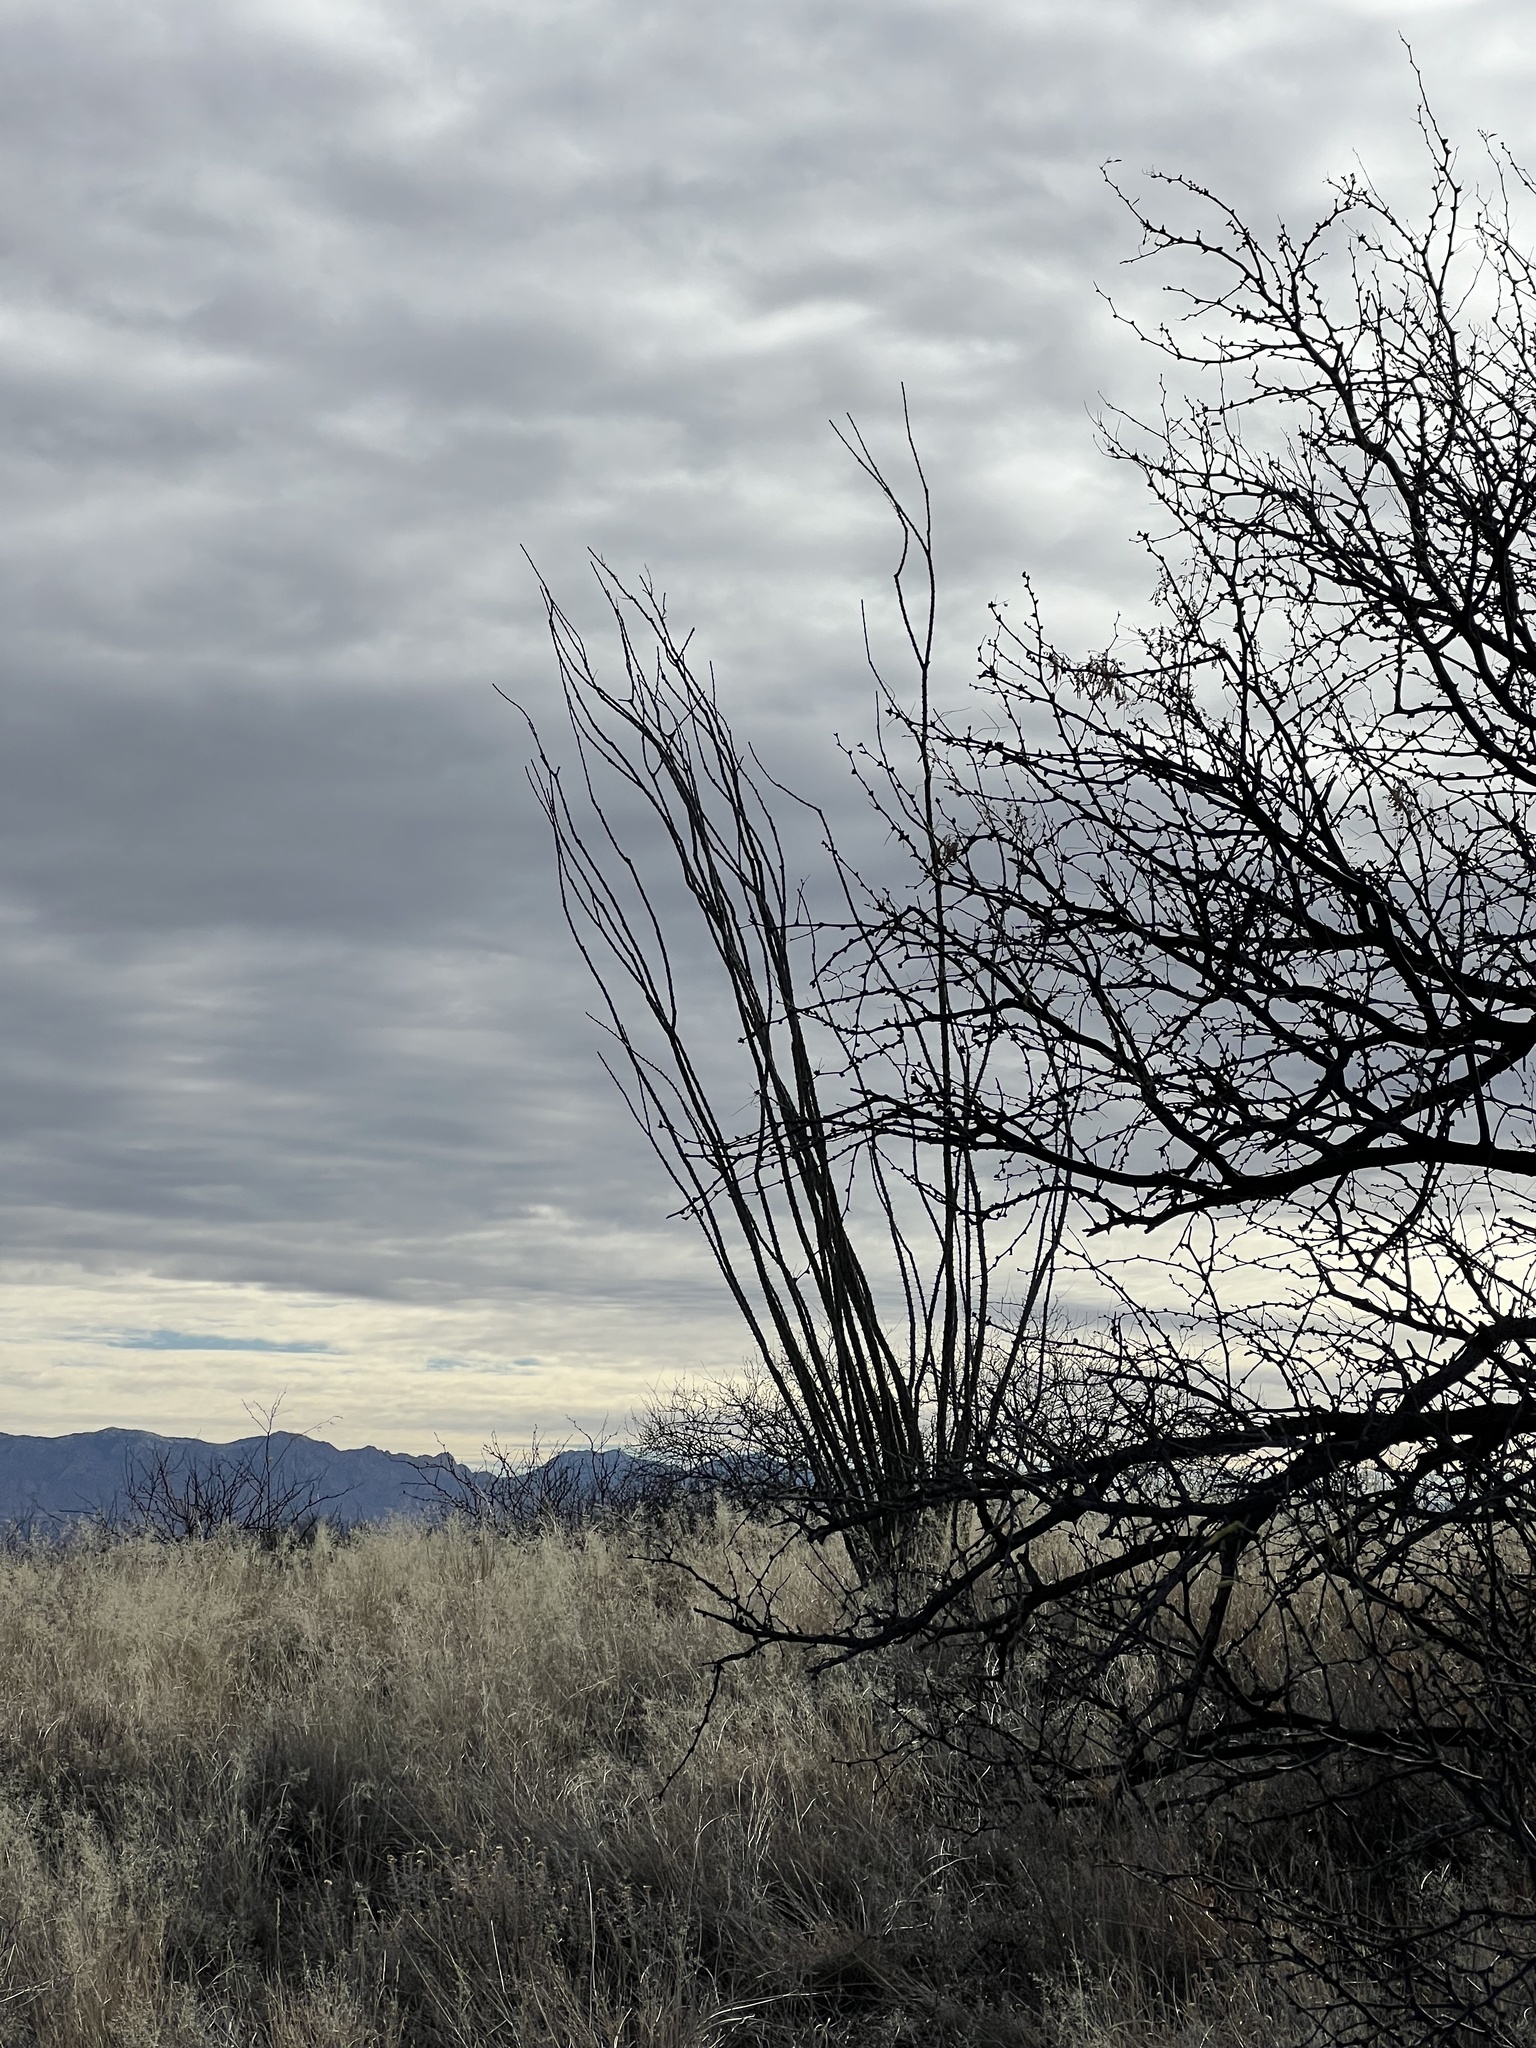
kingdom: Plantae
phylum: Tracheophyta
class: Magnoliopsida
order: Ericales
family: Fouquieriaceae
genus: Fouquieria
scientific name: Fouquieria splendens
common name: Vine-cactus
